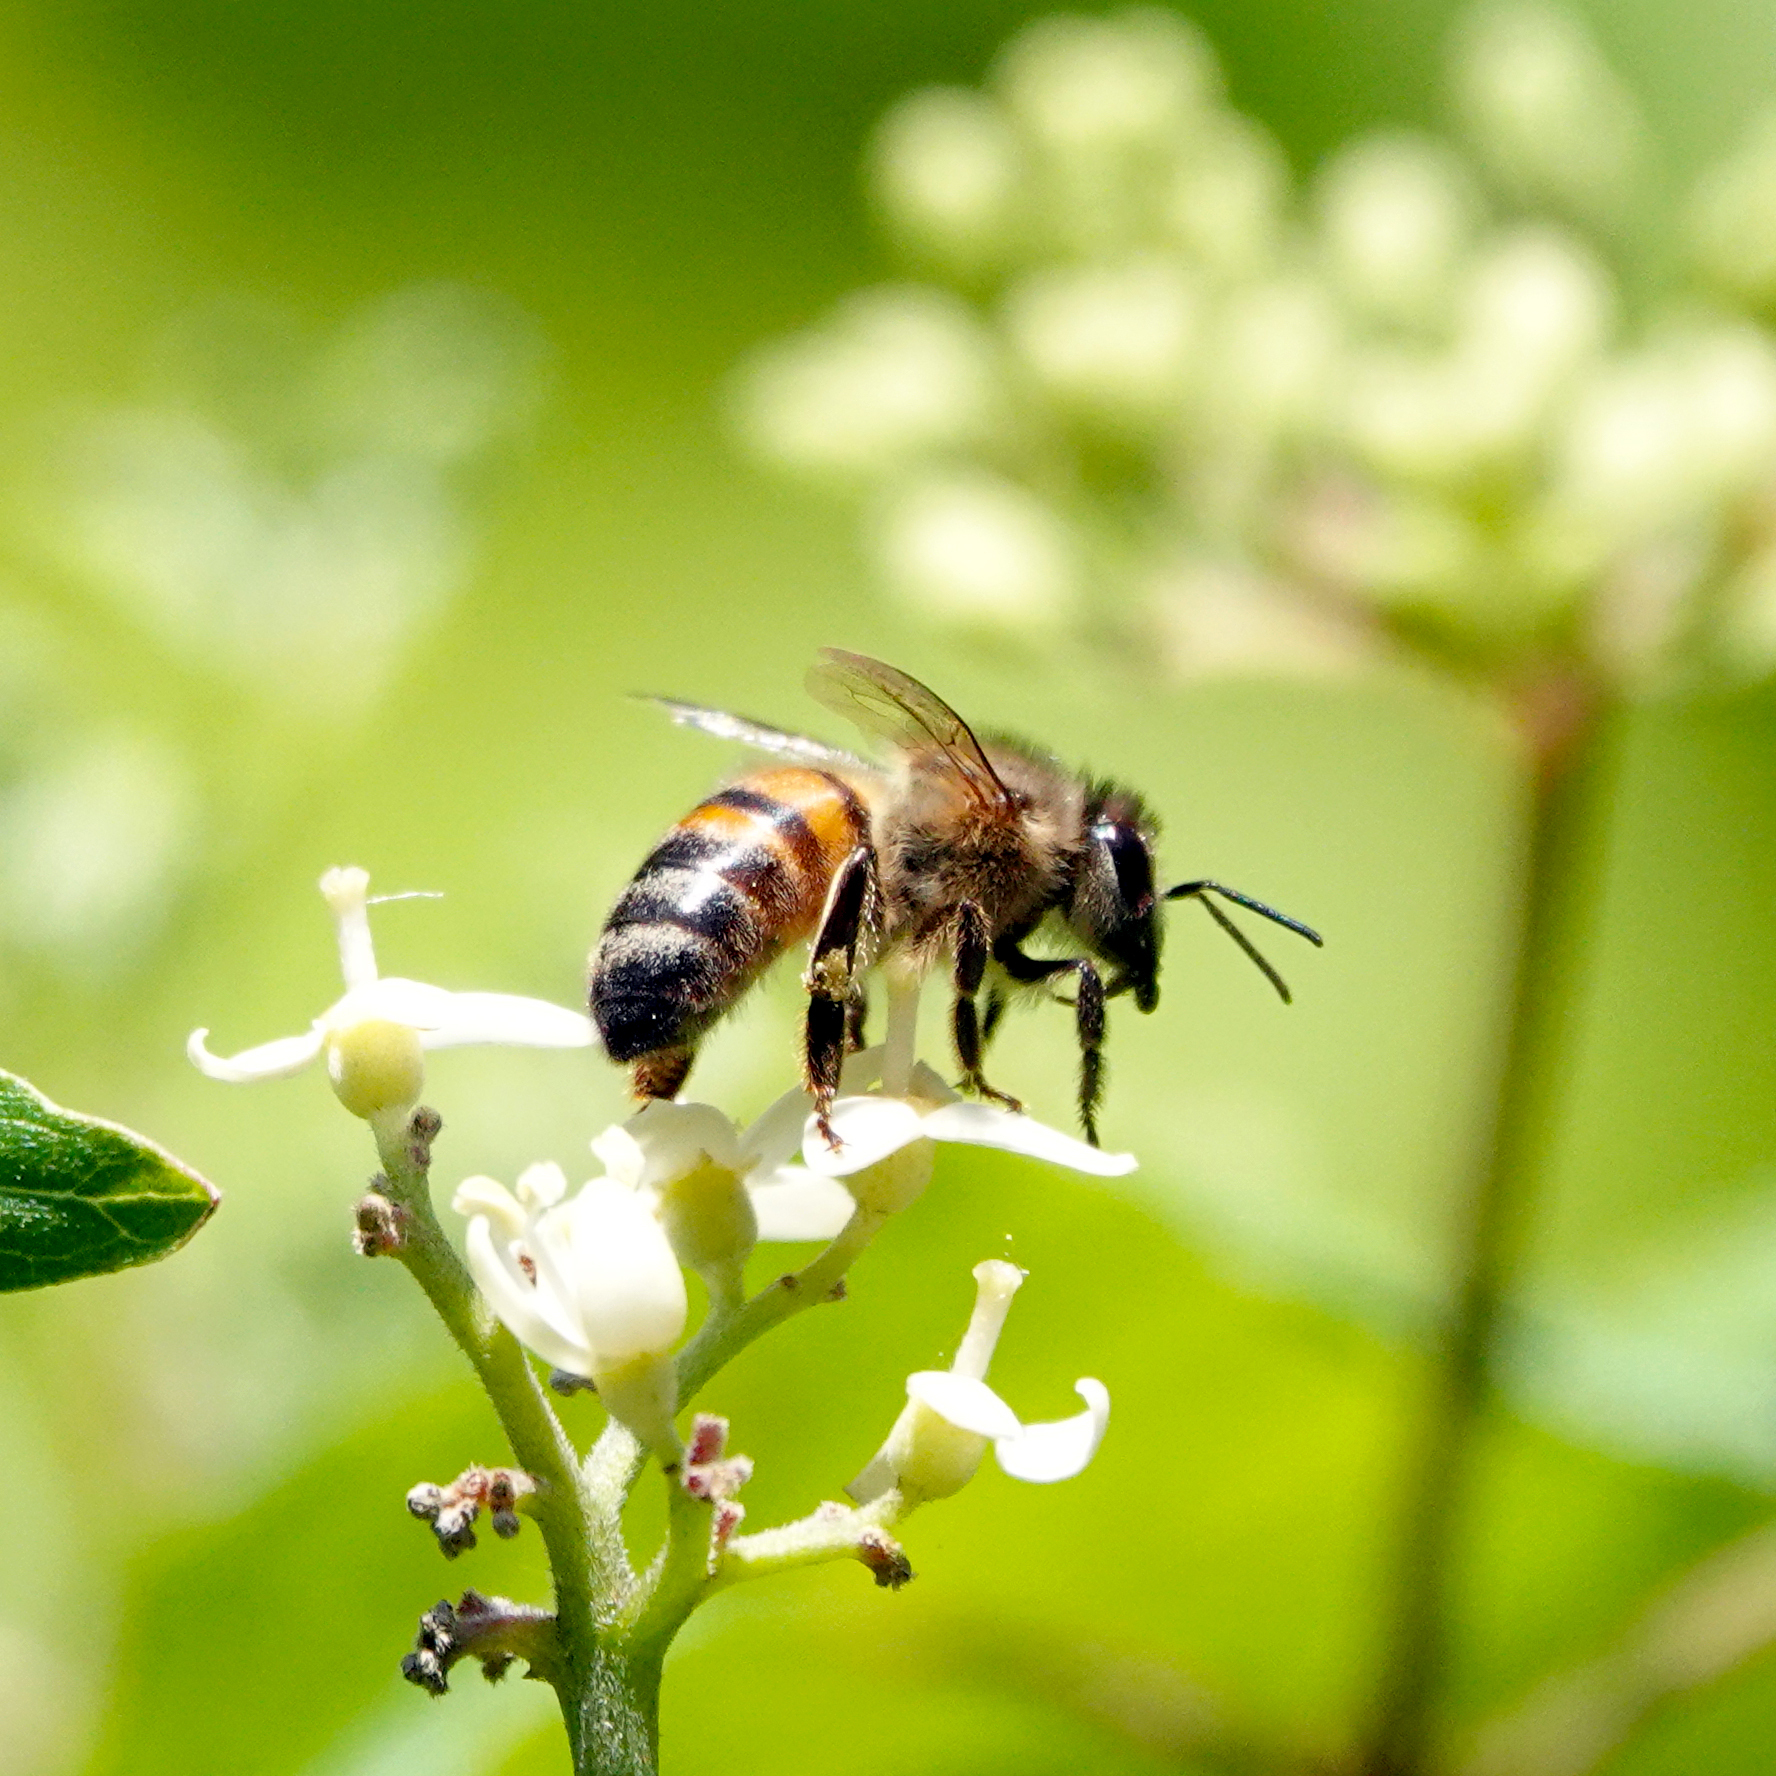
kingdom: Animalia
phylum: Arthropoda
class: Insecta
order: Hymenoptera
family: Apidae
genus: Apis
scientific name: Apis mellifera
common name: Honey bee
